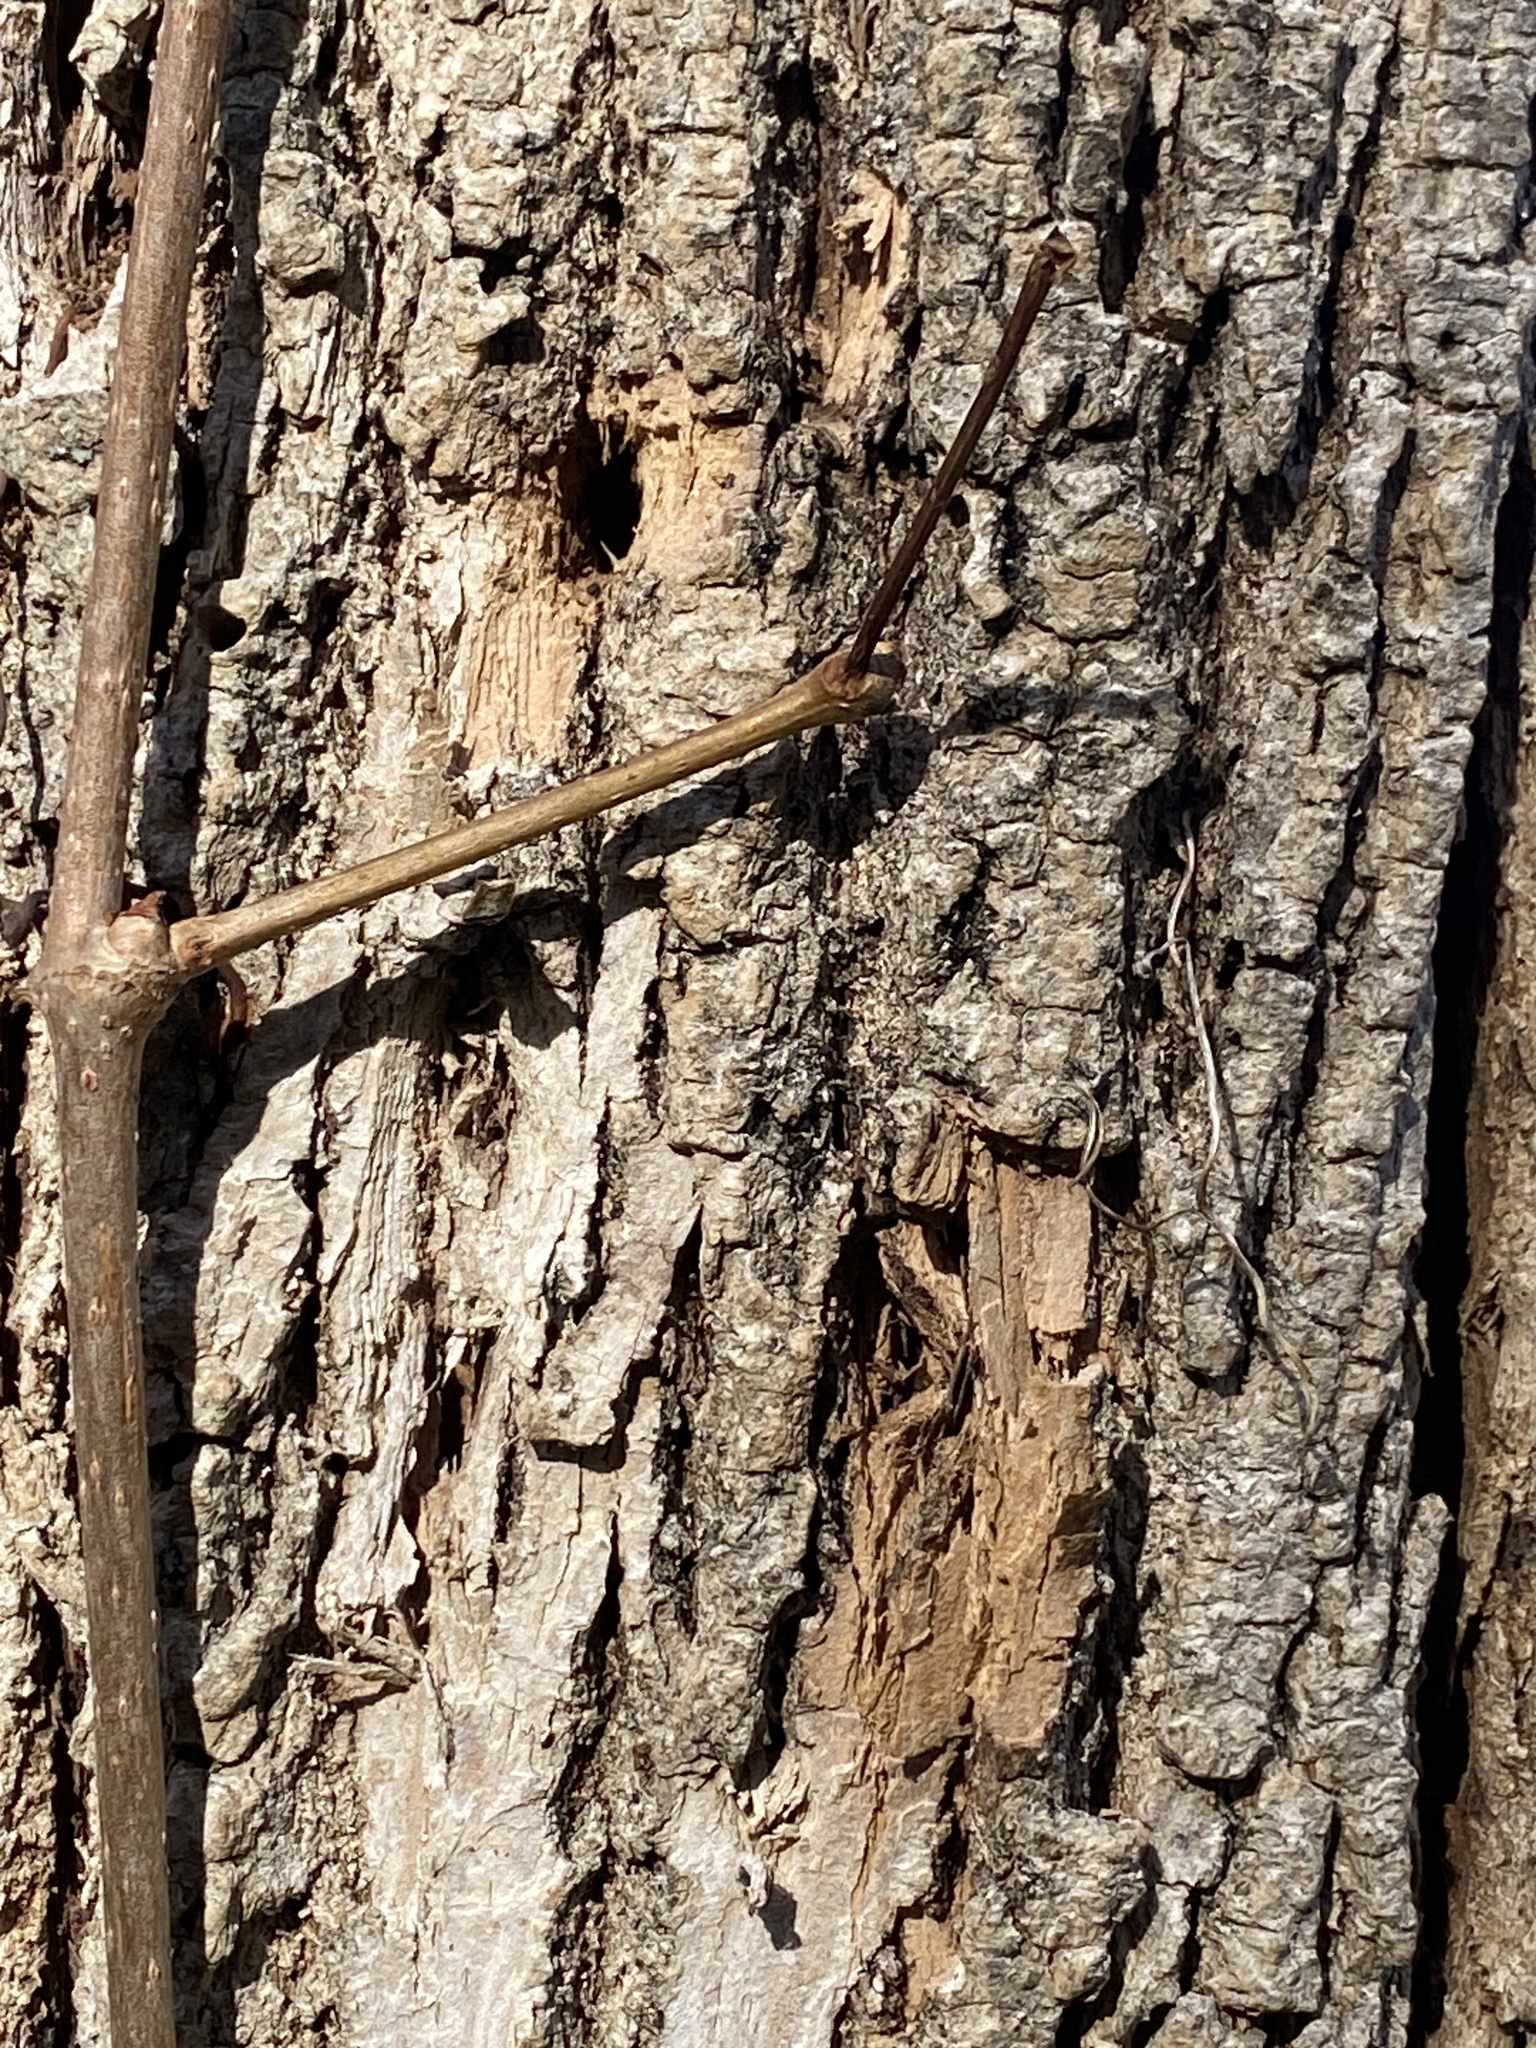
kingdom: Animalia
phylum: Arthropoda
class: Insecta
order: Coleoptera
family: Buprestidae
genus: Agrilus
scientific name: Agrilus planipennis
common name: Emerald ash borer
